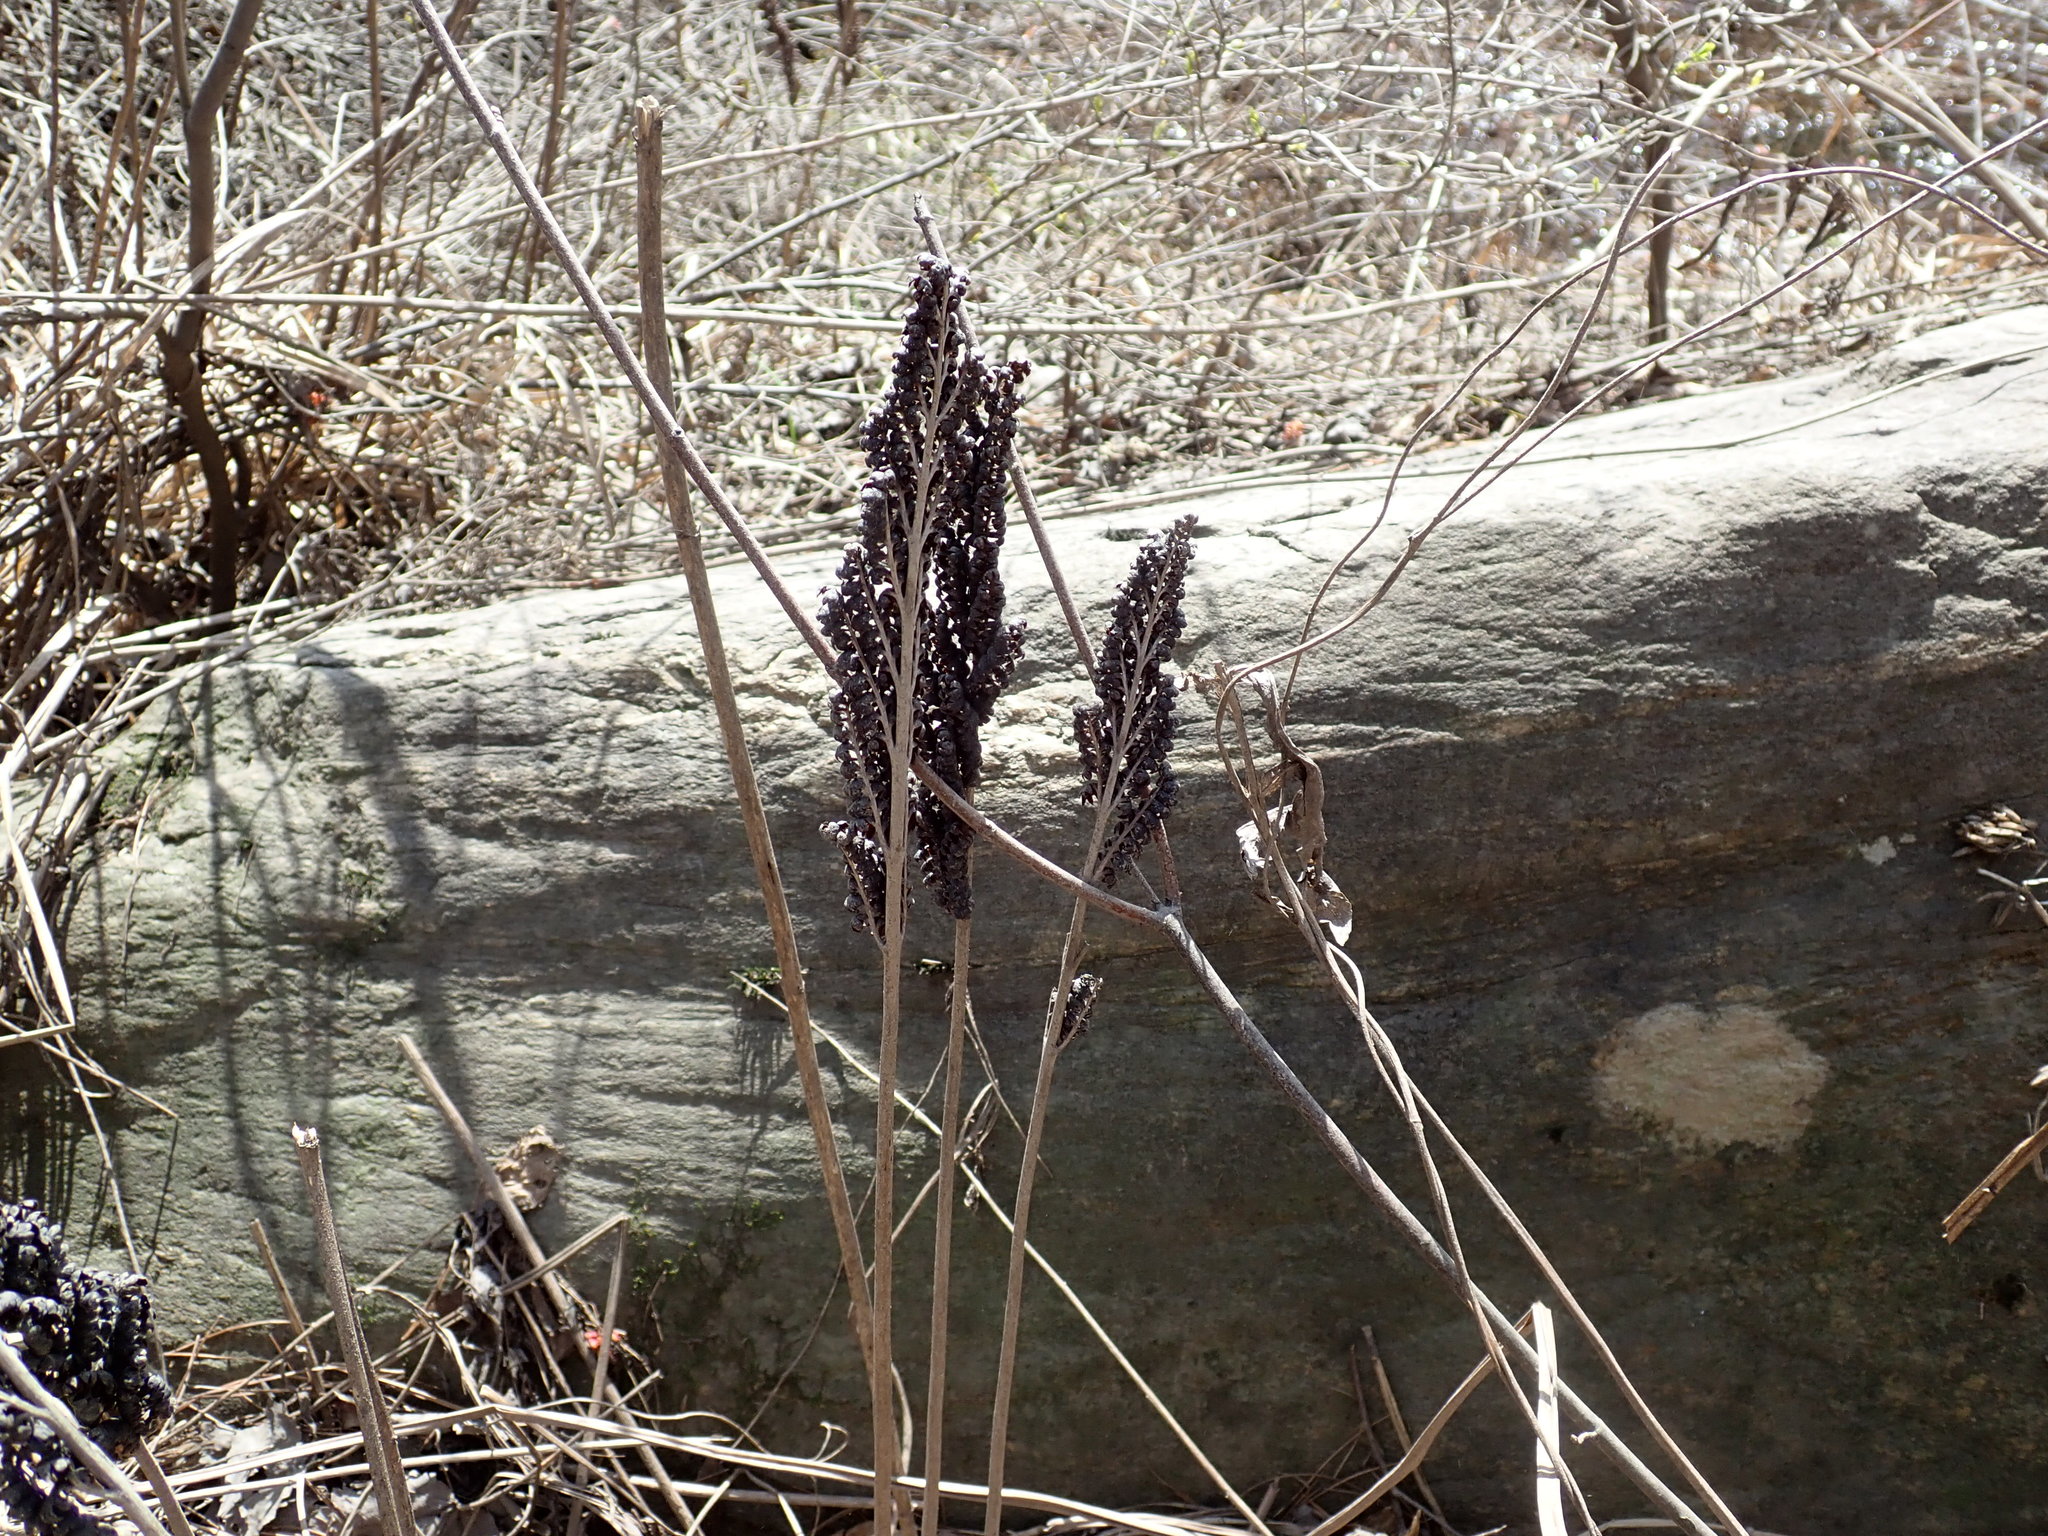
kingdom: Plantae
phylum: Tracheophyta
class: Polypodiopsida
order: Polypodiales
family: Onocleaceae
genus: Onoclea
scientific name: Onoclea sensibilis
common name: Sensitive fern
